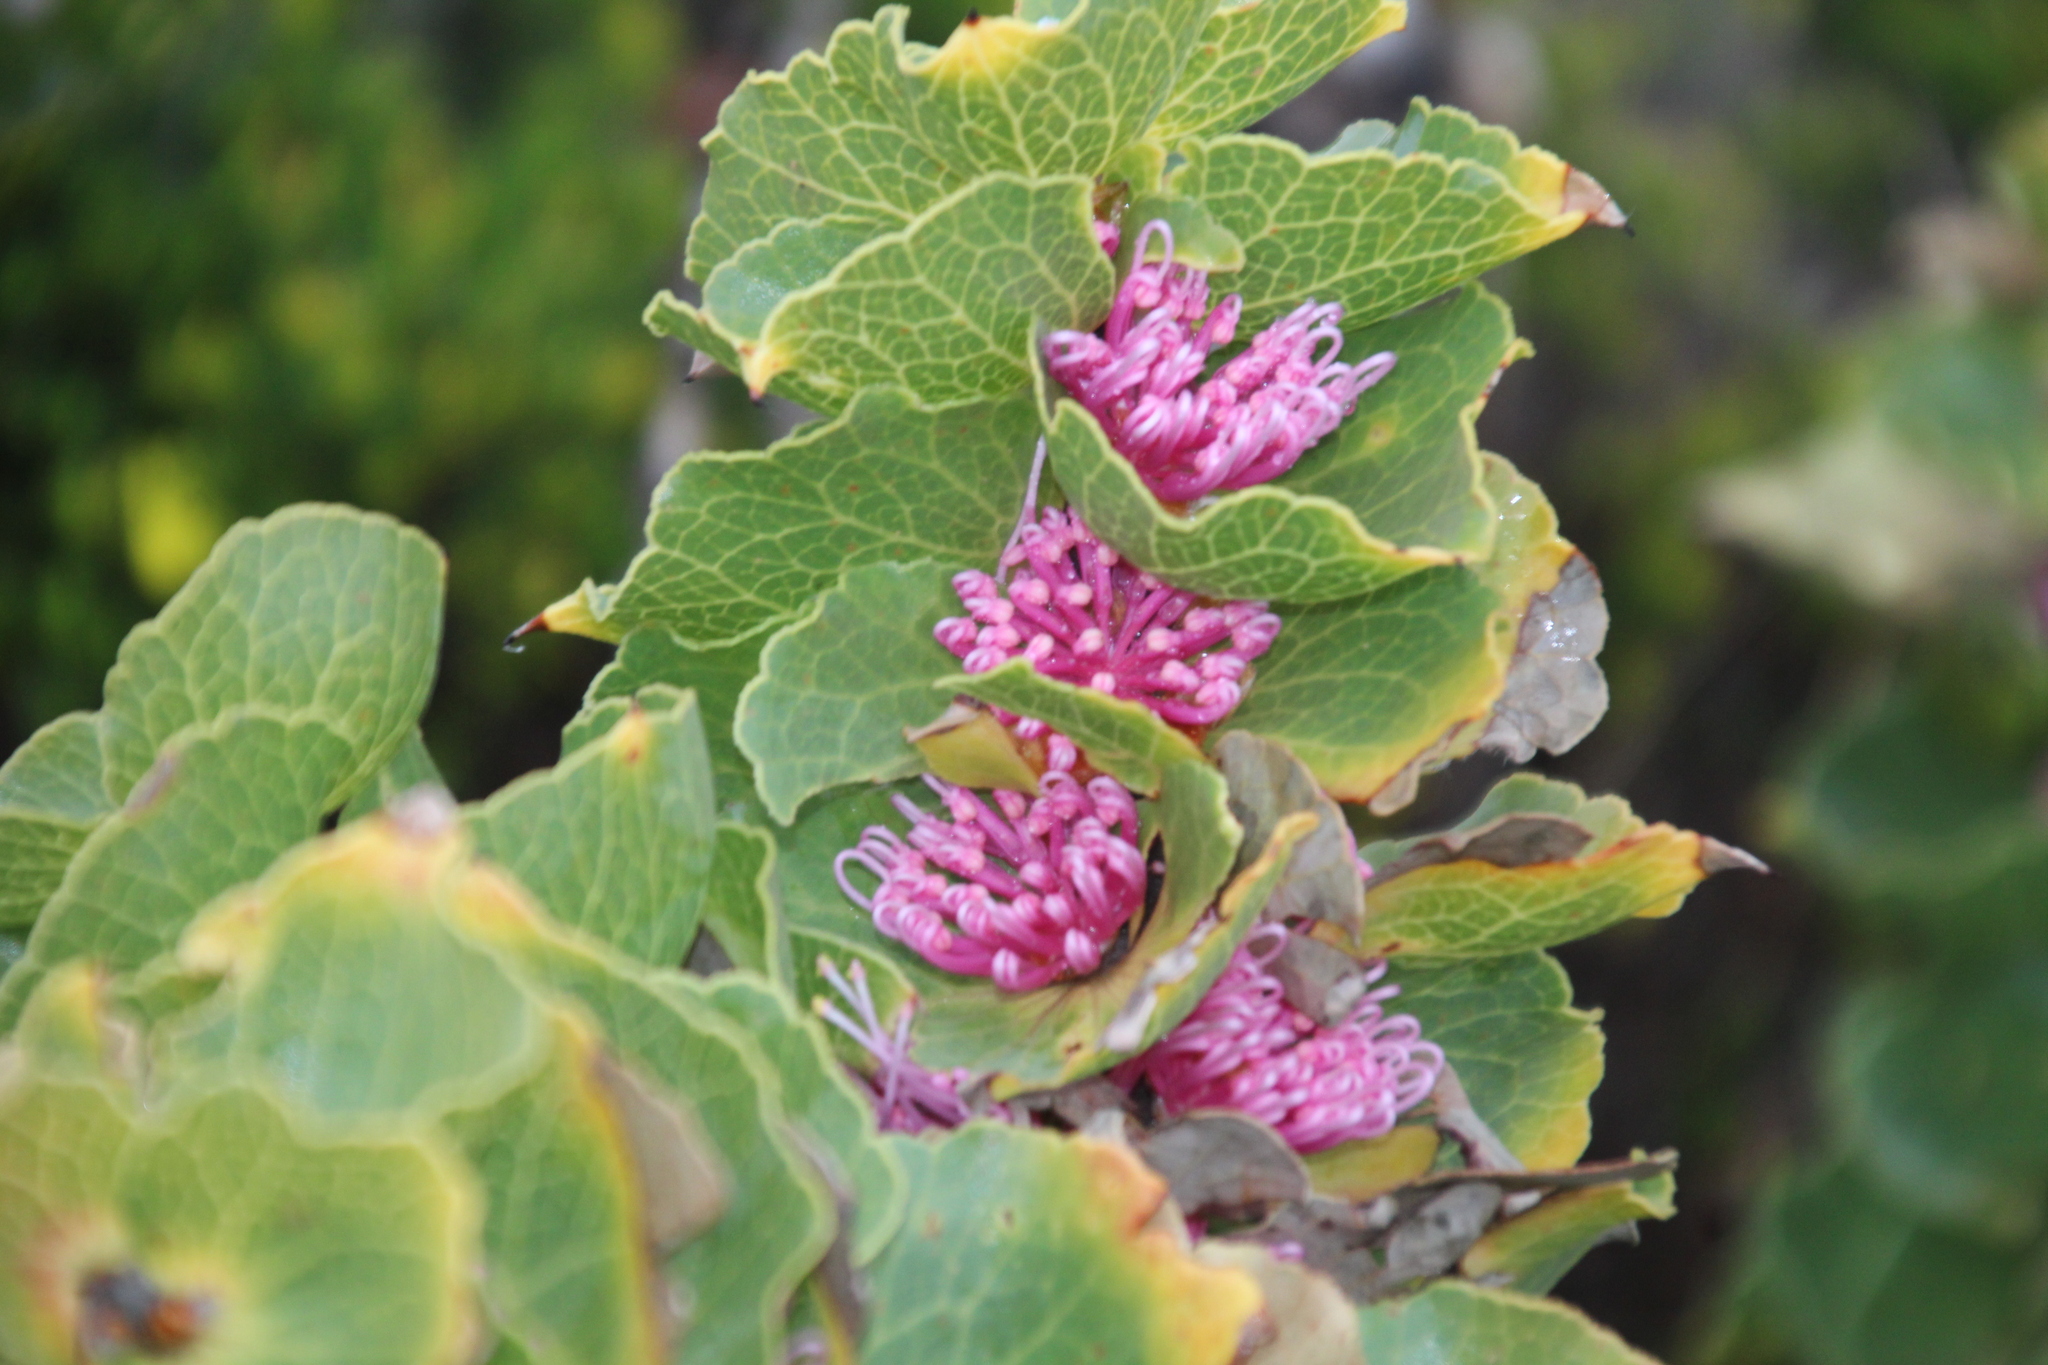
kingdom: Plantae
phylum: Tracheophyta
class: Magnoliopsida
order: Proteales
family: Proteaceae
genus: Hakea
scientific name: Hakea cucullata
